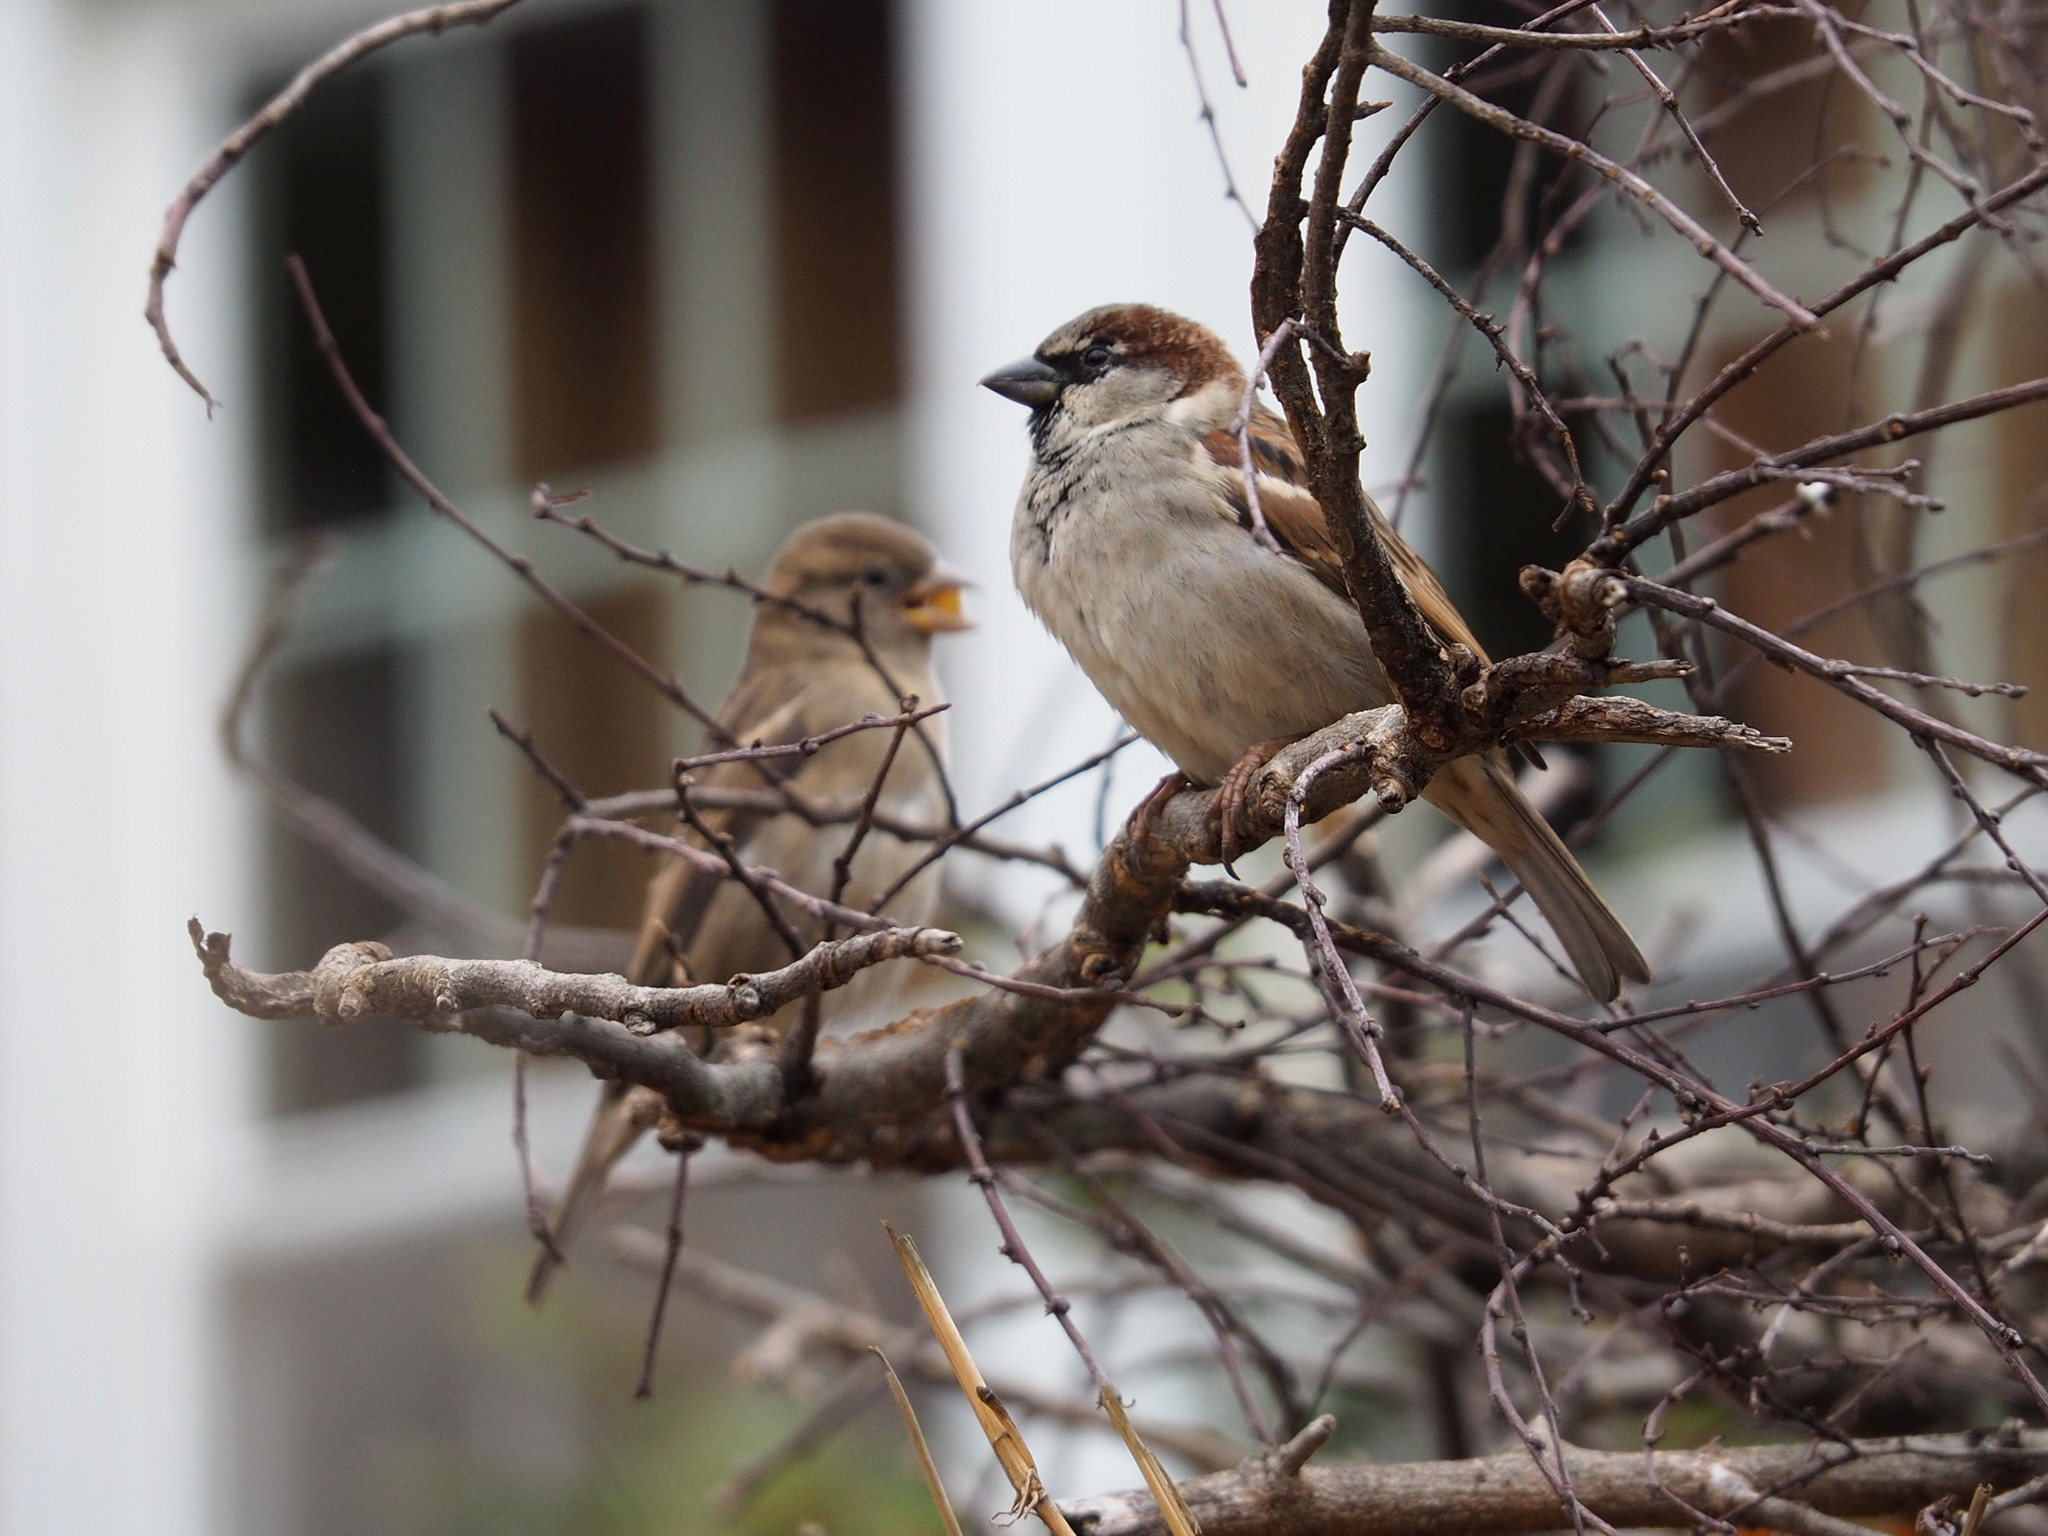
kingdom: Animalia
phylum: Chordata
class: Aves
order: Passeriformes
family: Passeridae
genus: Passer
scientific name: Passer domesticus
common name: House sparrow
